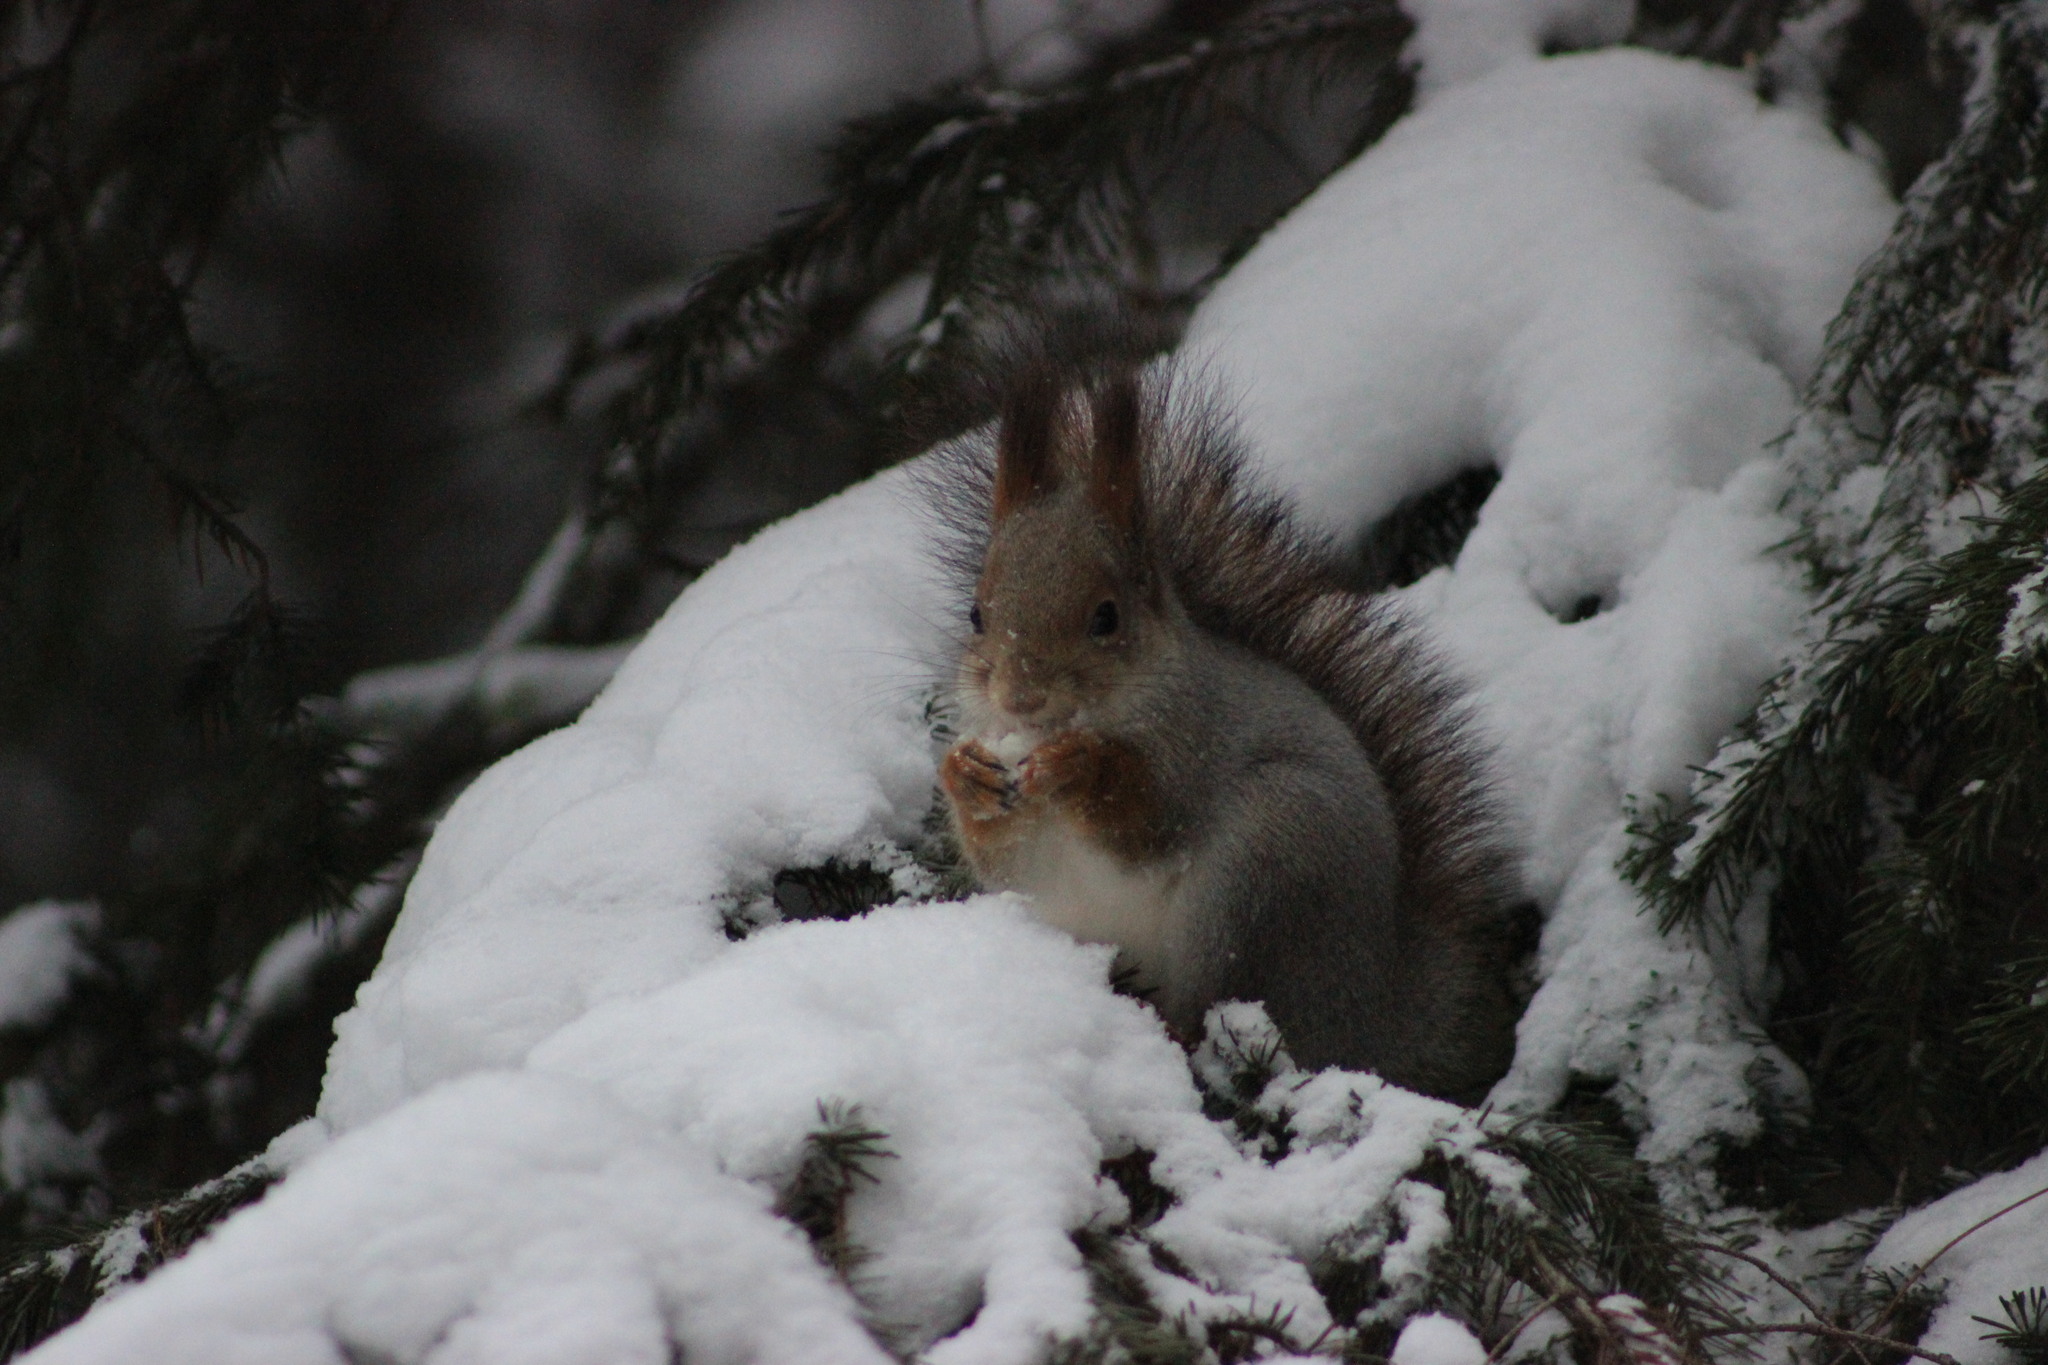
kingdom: Animalia
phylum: Chordata
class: Mammalia
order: Rodentia
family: Sciuridae
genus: Sciurus
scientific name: Sciurus vulgaris
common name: Eurasian red squirrel
